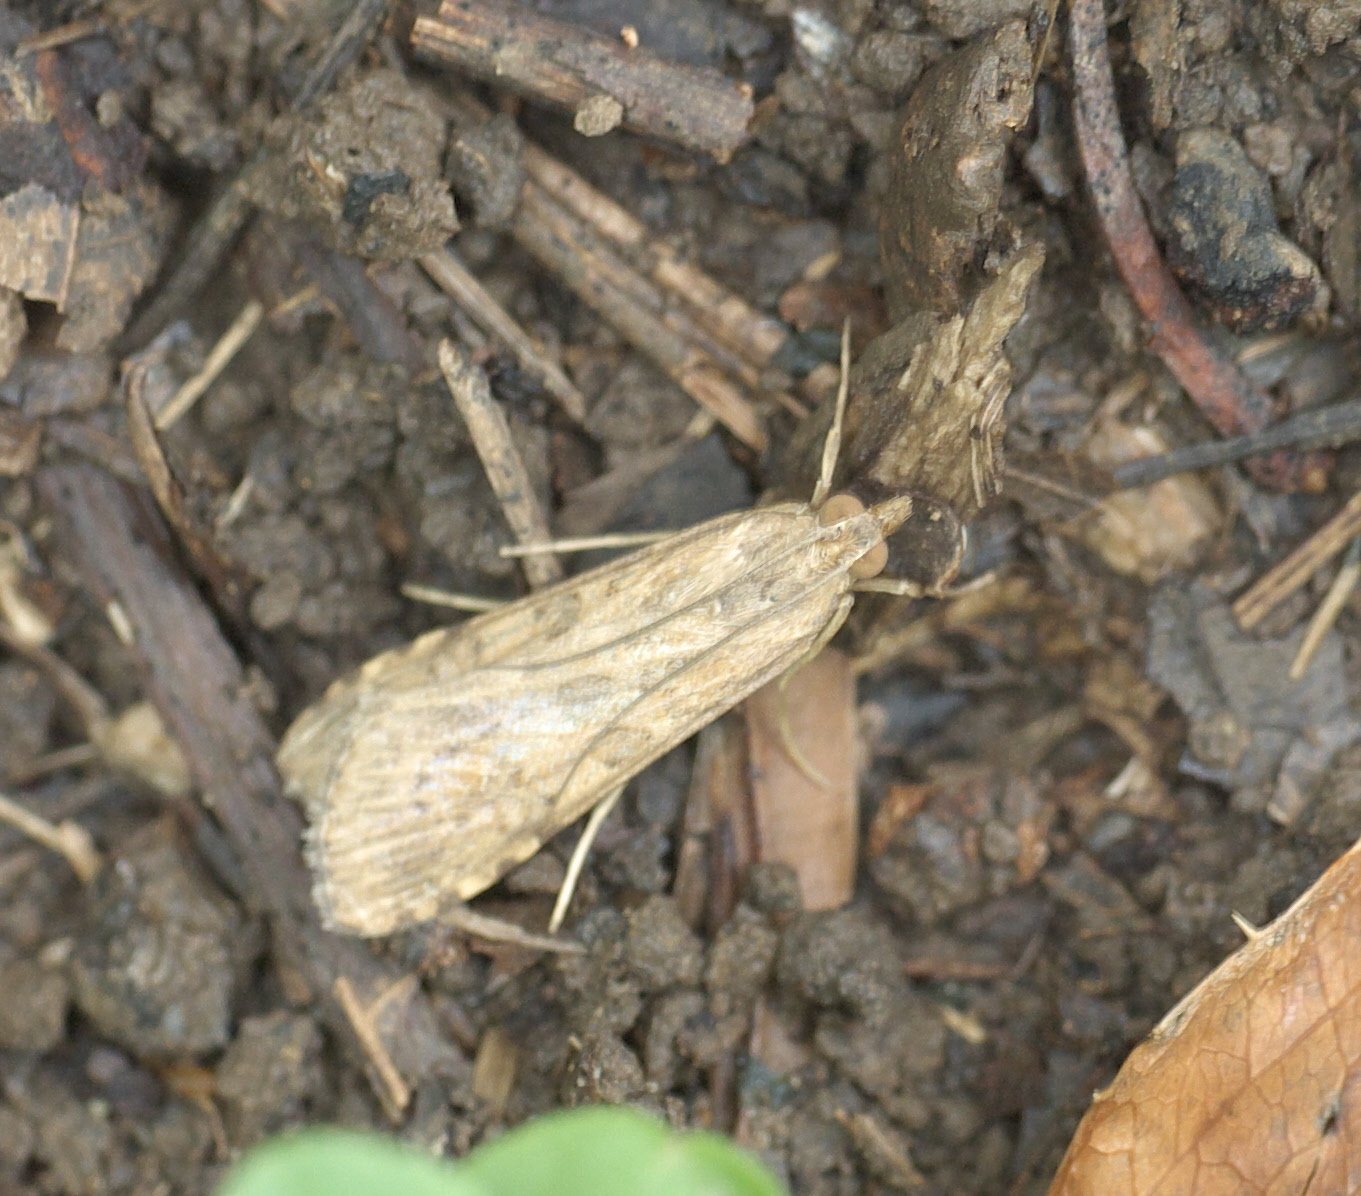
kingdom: Animalia
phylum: Arthropoda
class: Insecta
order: Lepidoptera
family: Crambidae
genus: Nomophila
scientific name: Nomophila nearctica
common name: American rush veneer
